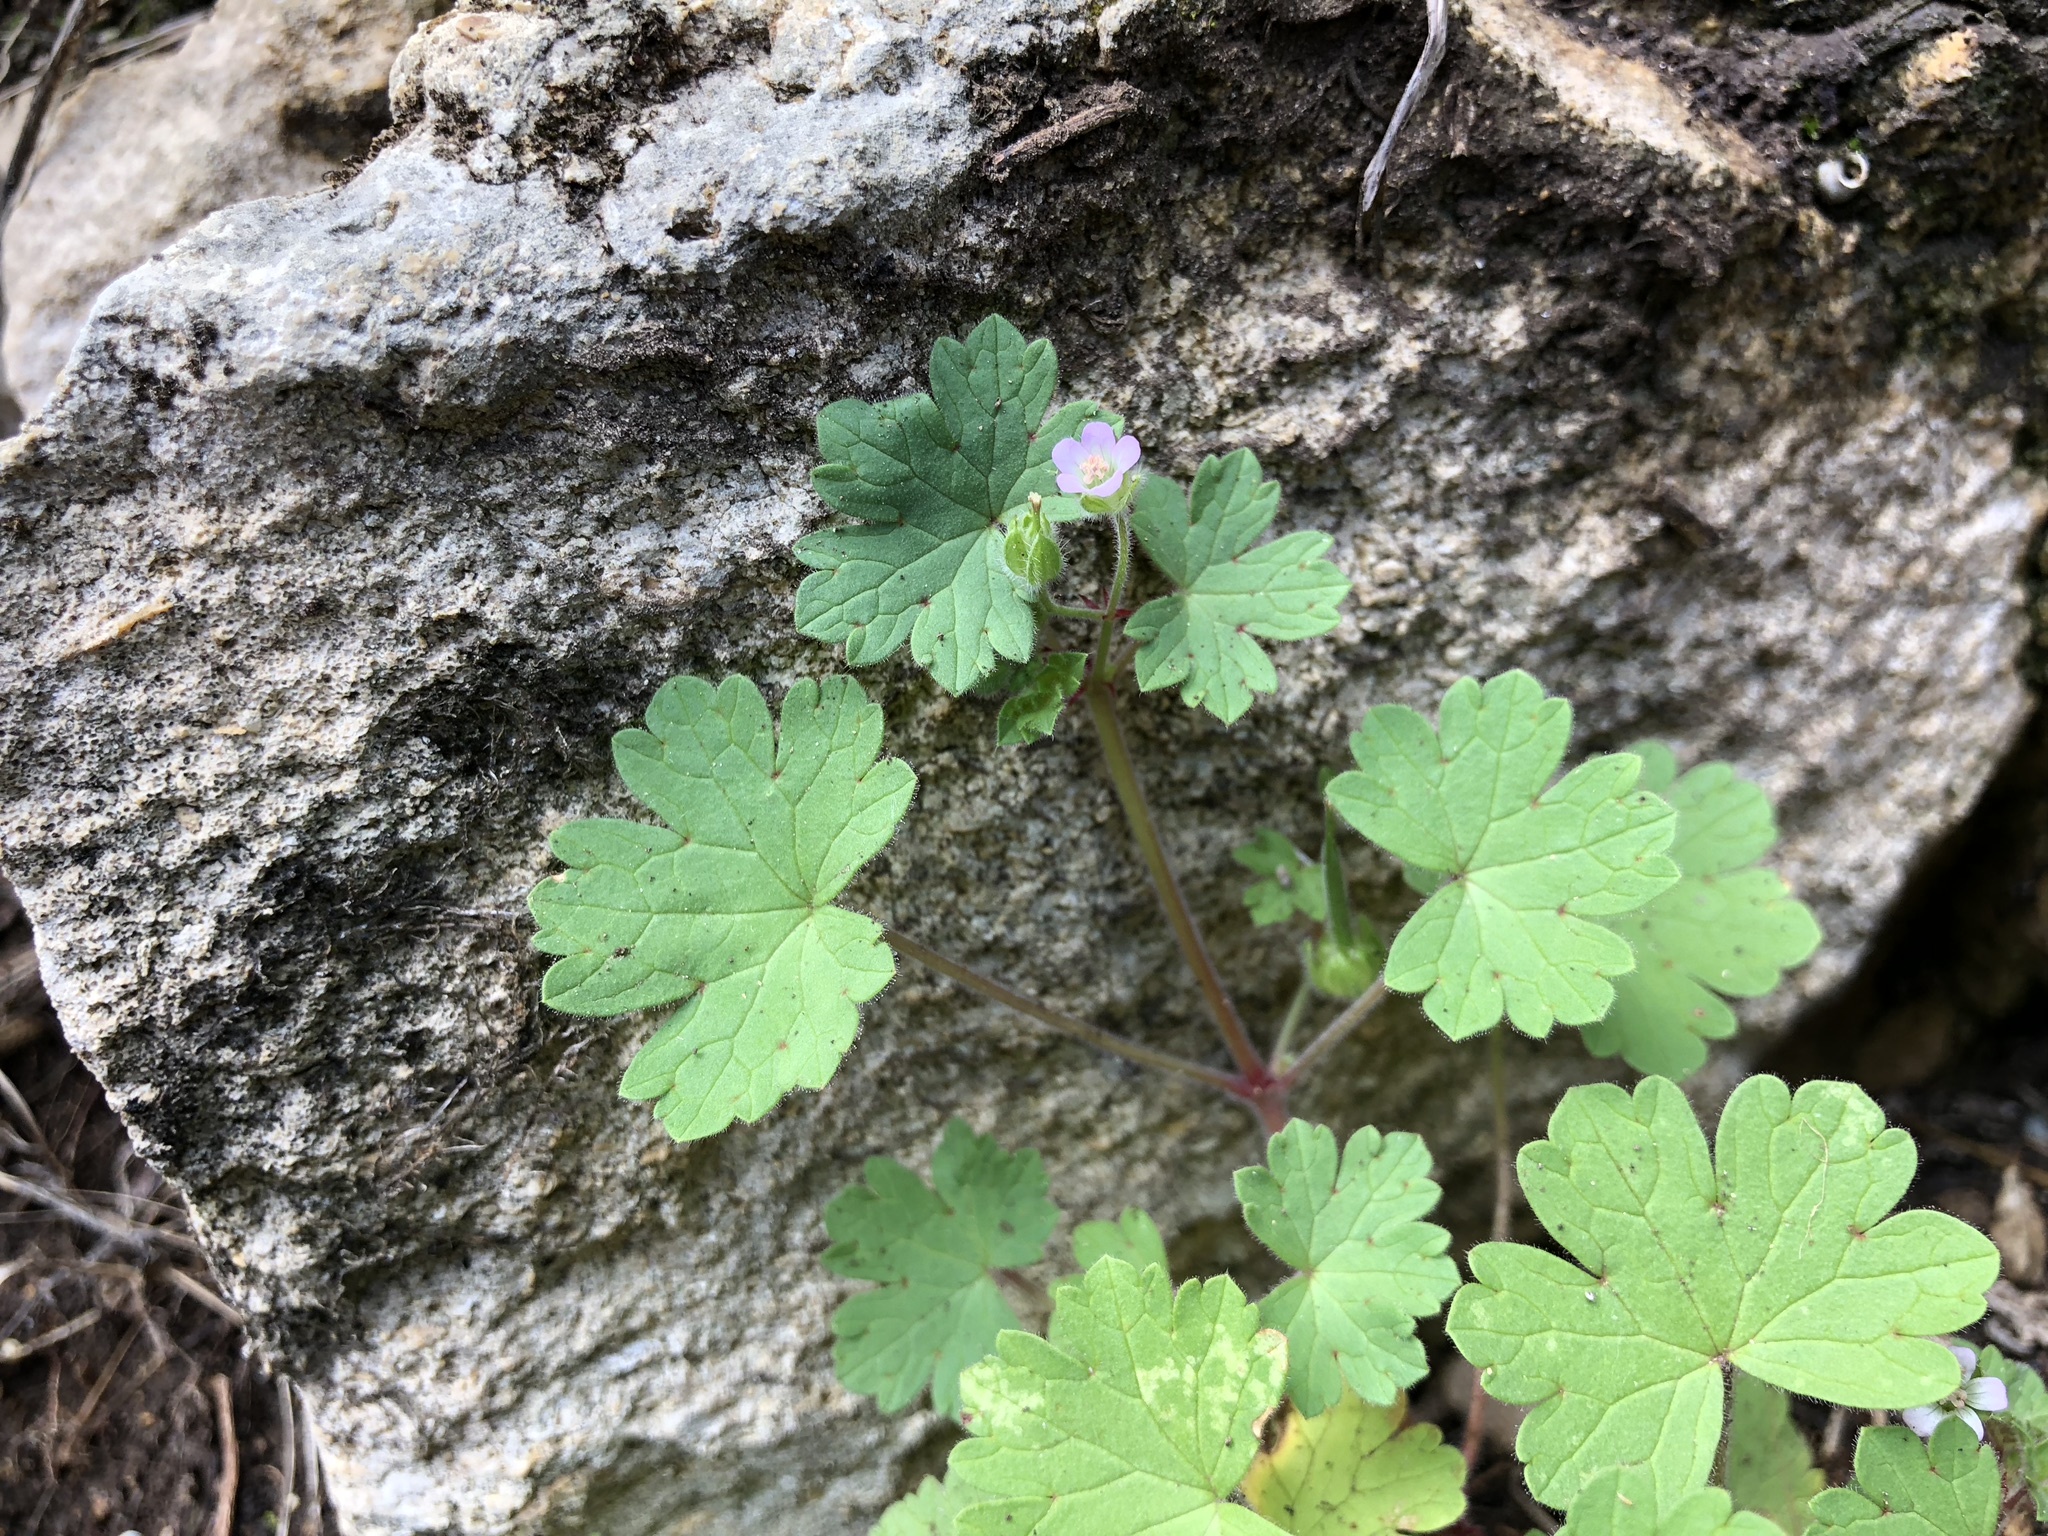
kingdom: Plantae
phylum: Tracheophyta
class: Magnoliopsida
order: Geraniales
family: Geraniaceae
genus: Geranium
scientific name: Geranium rotundifolium
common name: Round-leaved crane's-bill
